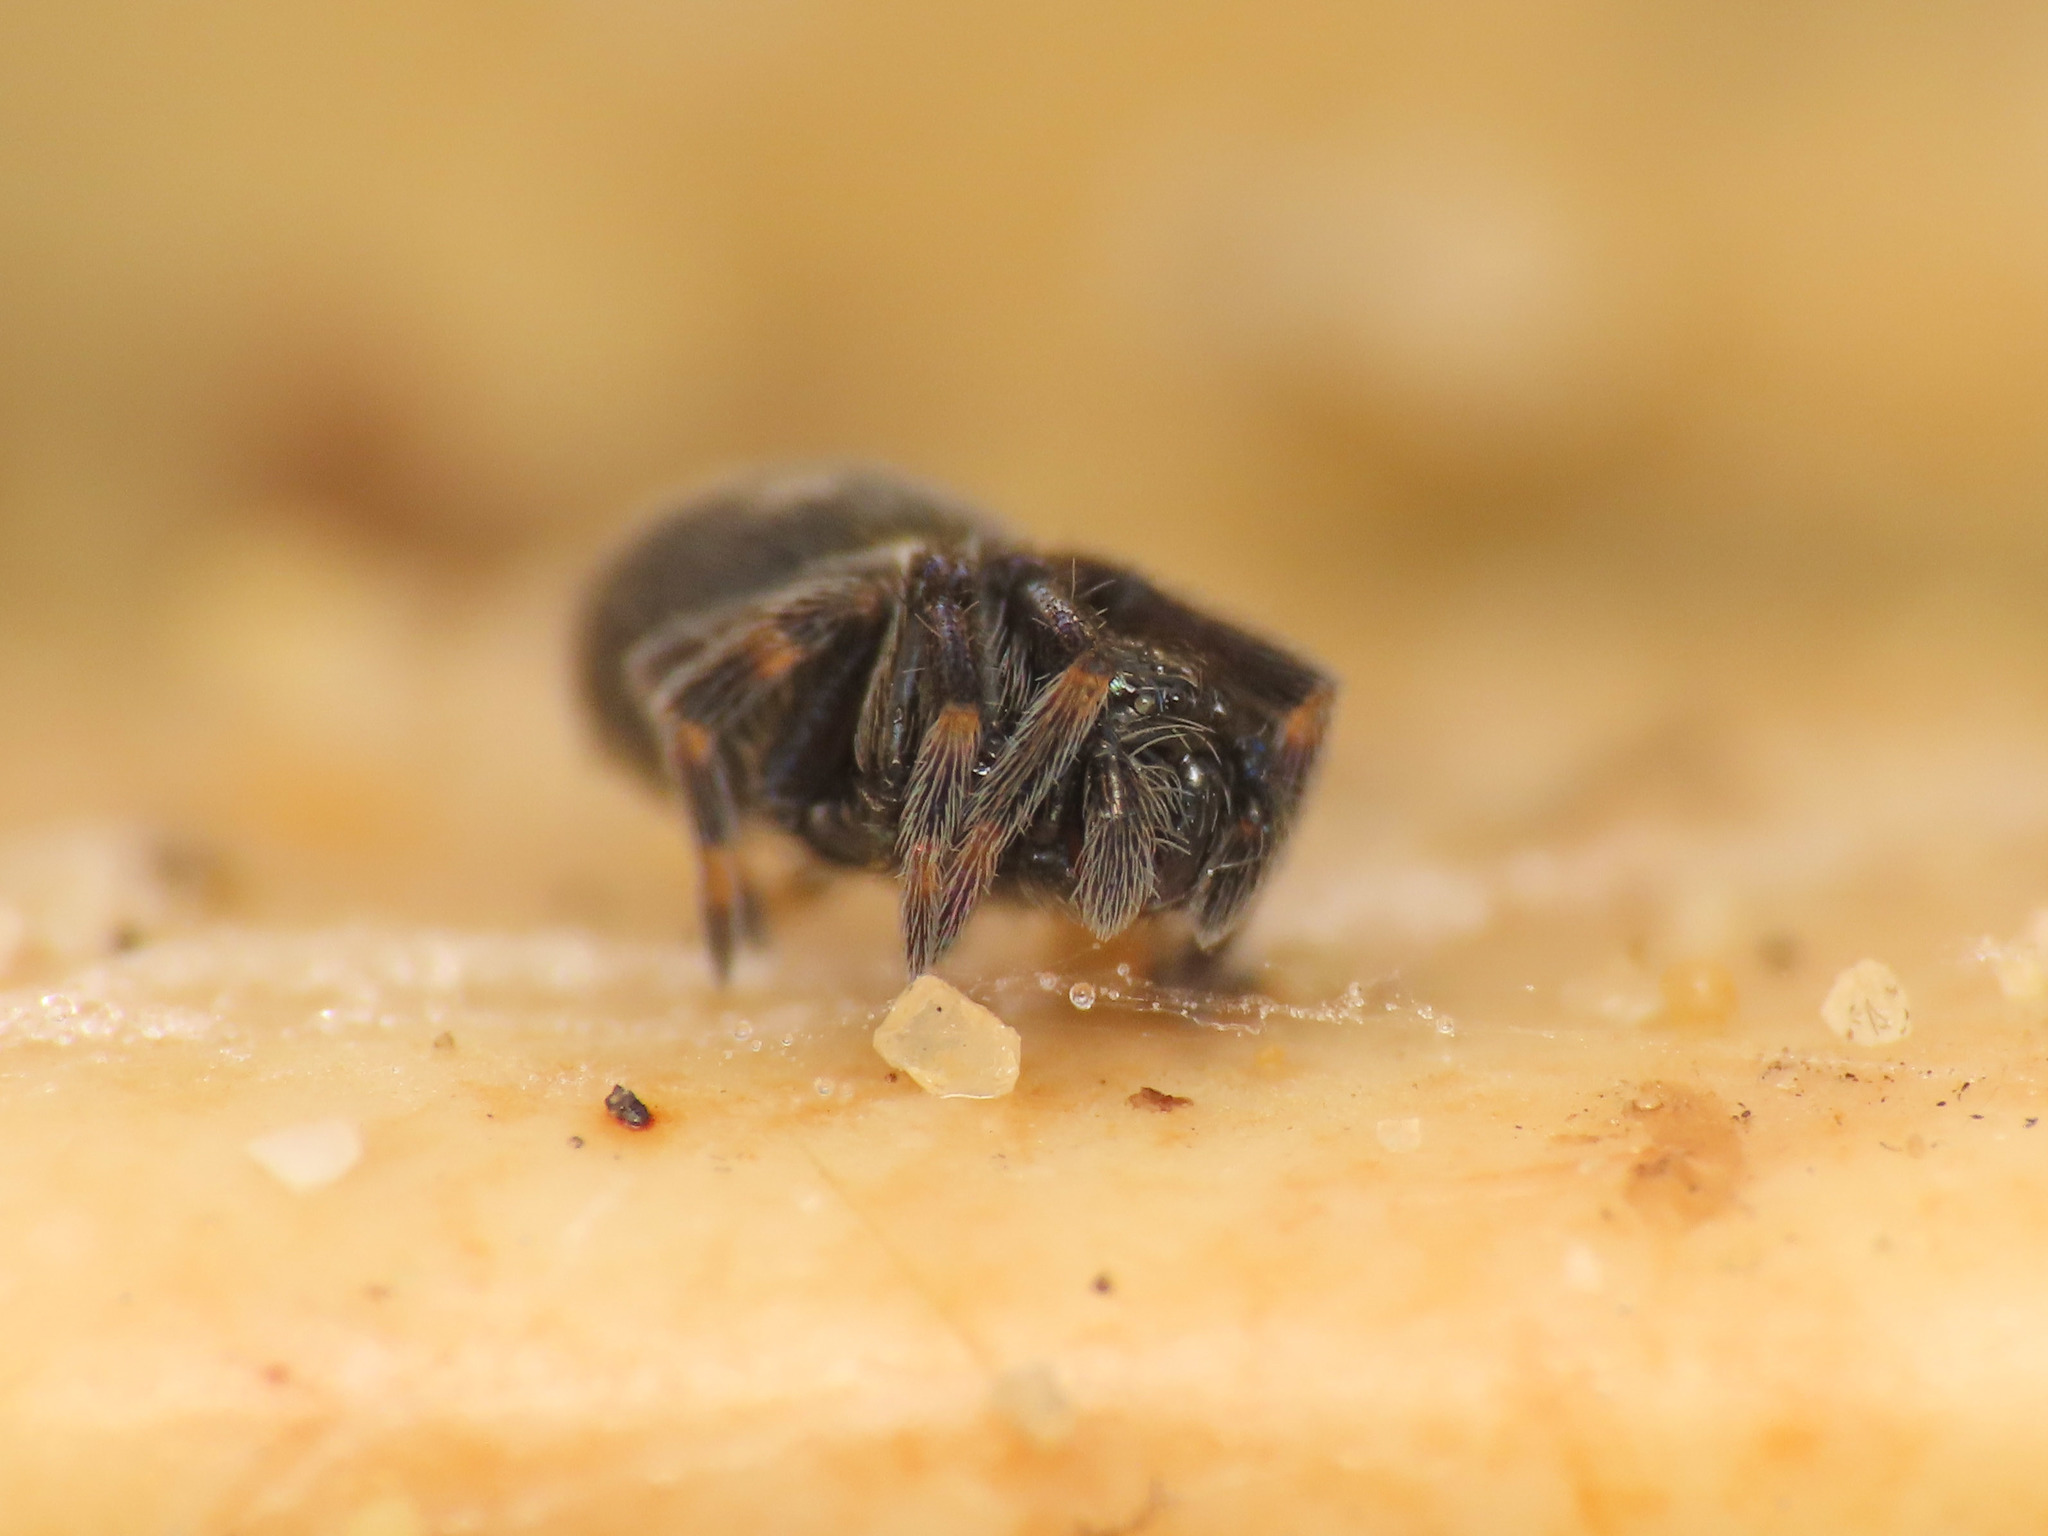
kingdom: Animalia
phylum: Arthropoda
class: Arachnida
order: Araneae
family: Titanoecidae
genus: Nurscia
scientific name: Nurscia albomaculata
